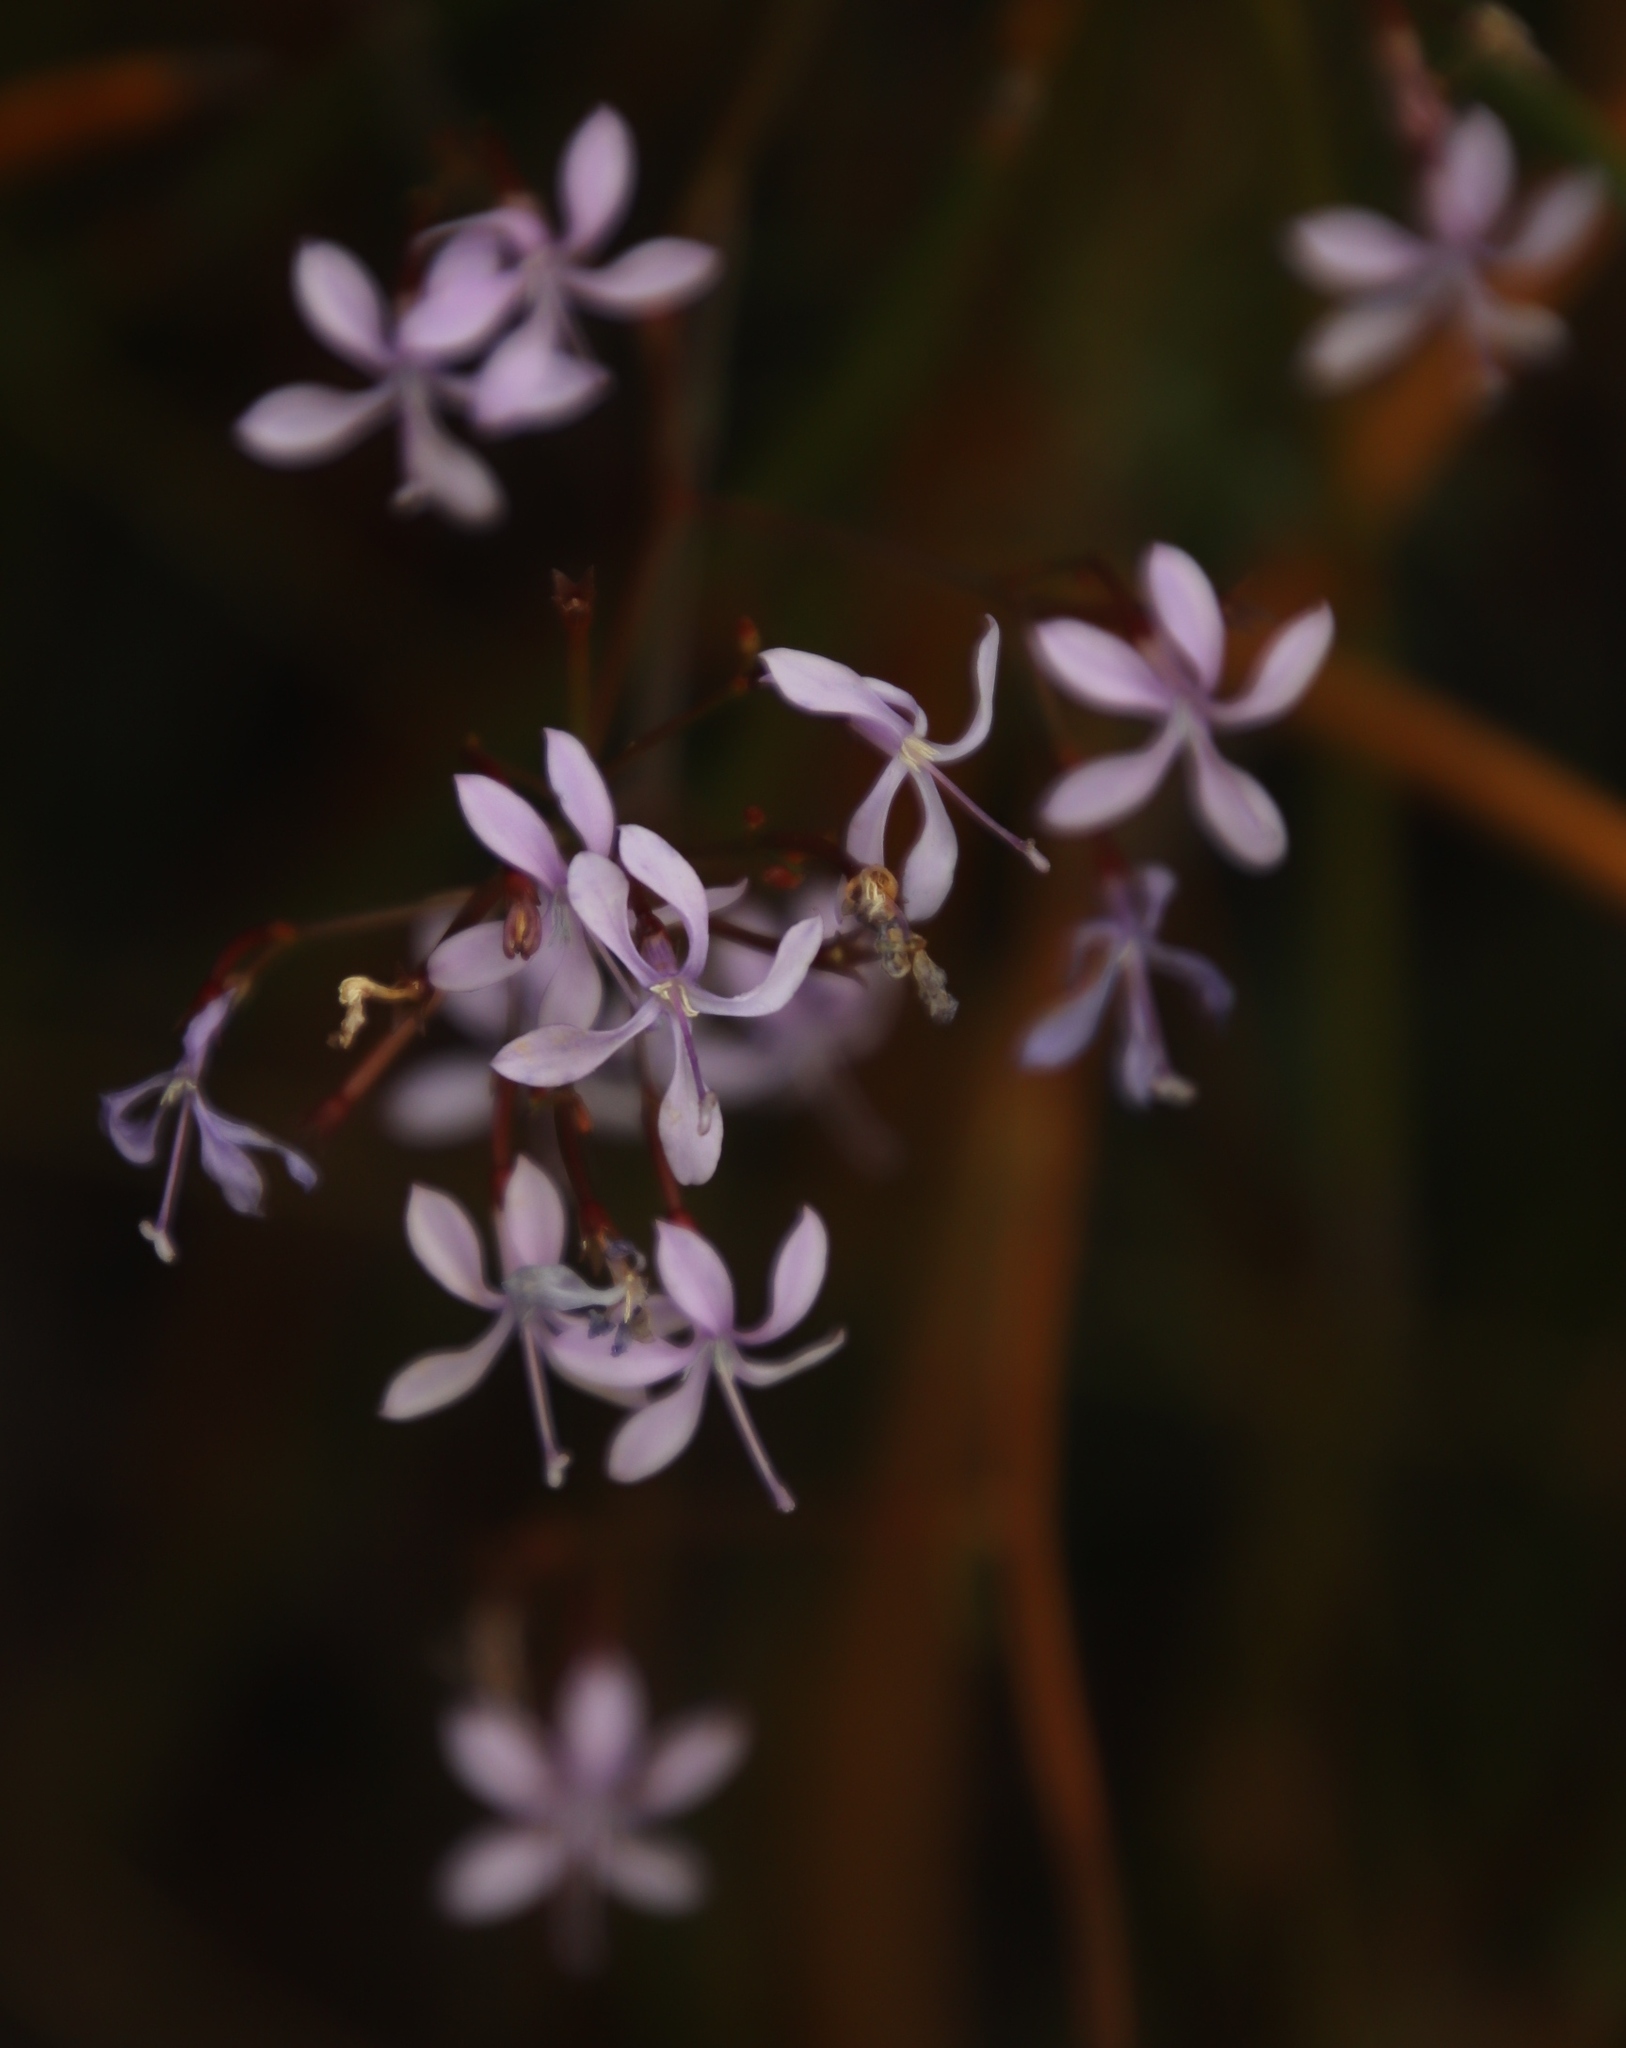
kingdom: Plantae
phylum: Tracheophyta
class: Magnoliopsida
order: Asterales
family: Campanulaceae
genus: Prismatocarpus
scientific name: Prismatocarpus diffusus
